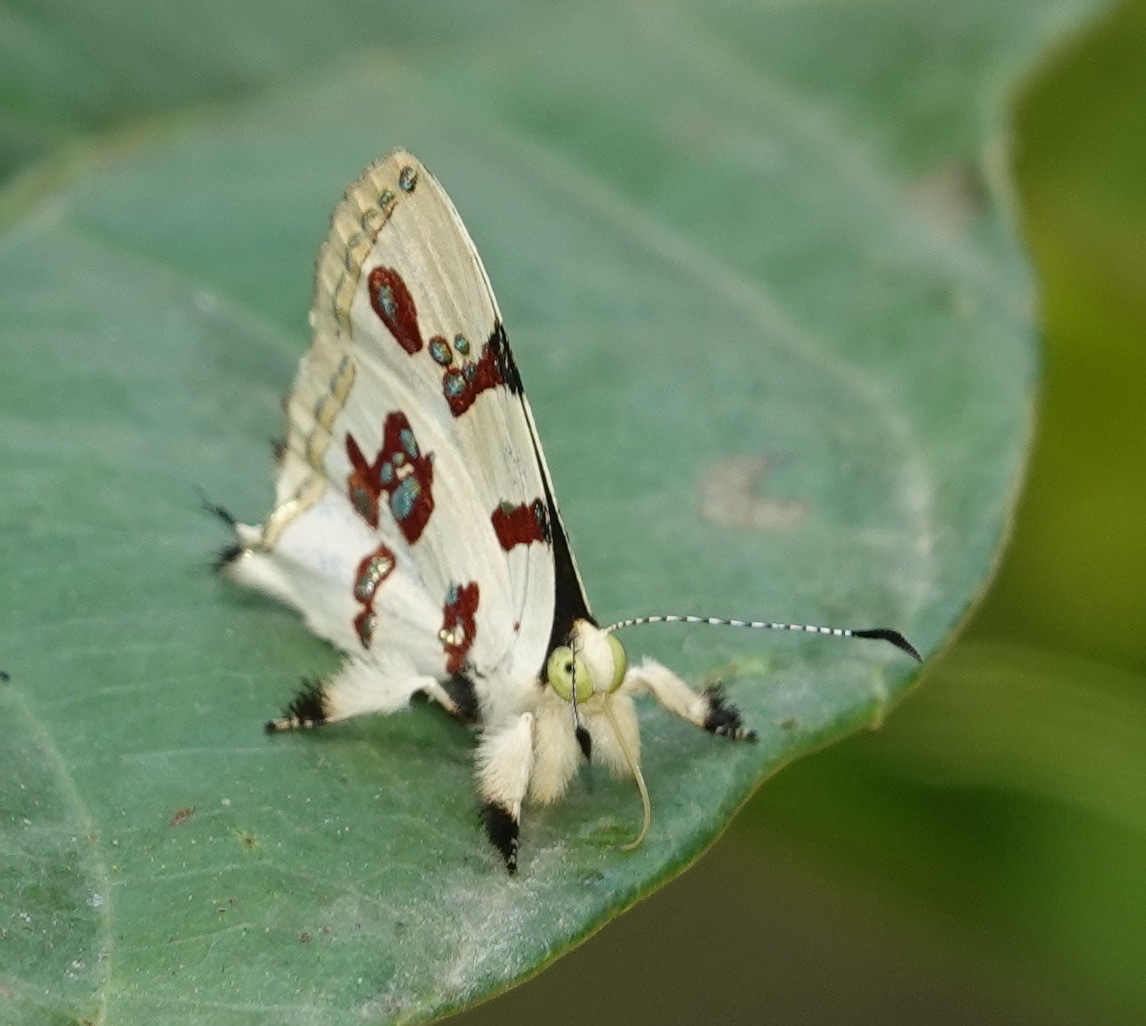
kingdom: Animalia
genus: Anteros
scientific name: Anteros formosus
